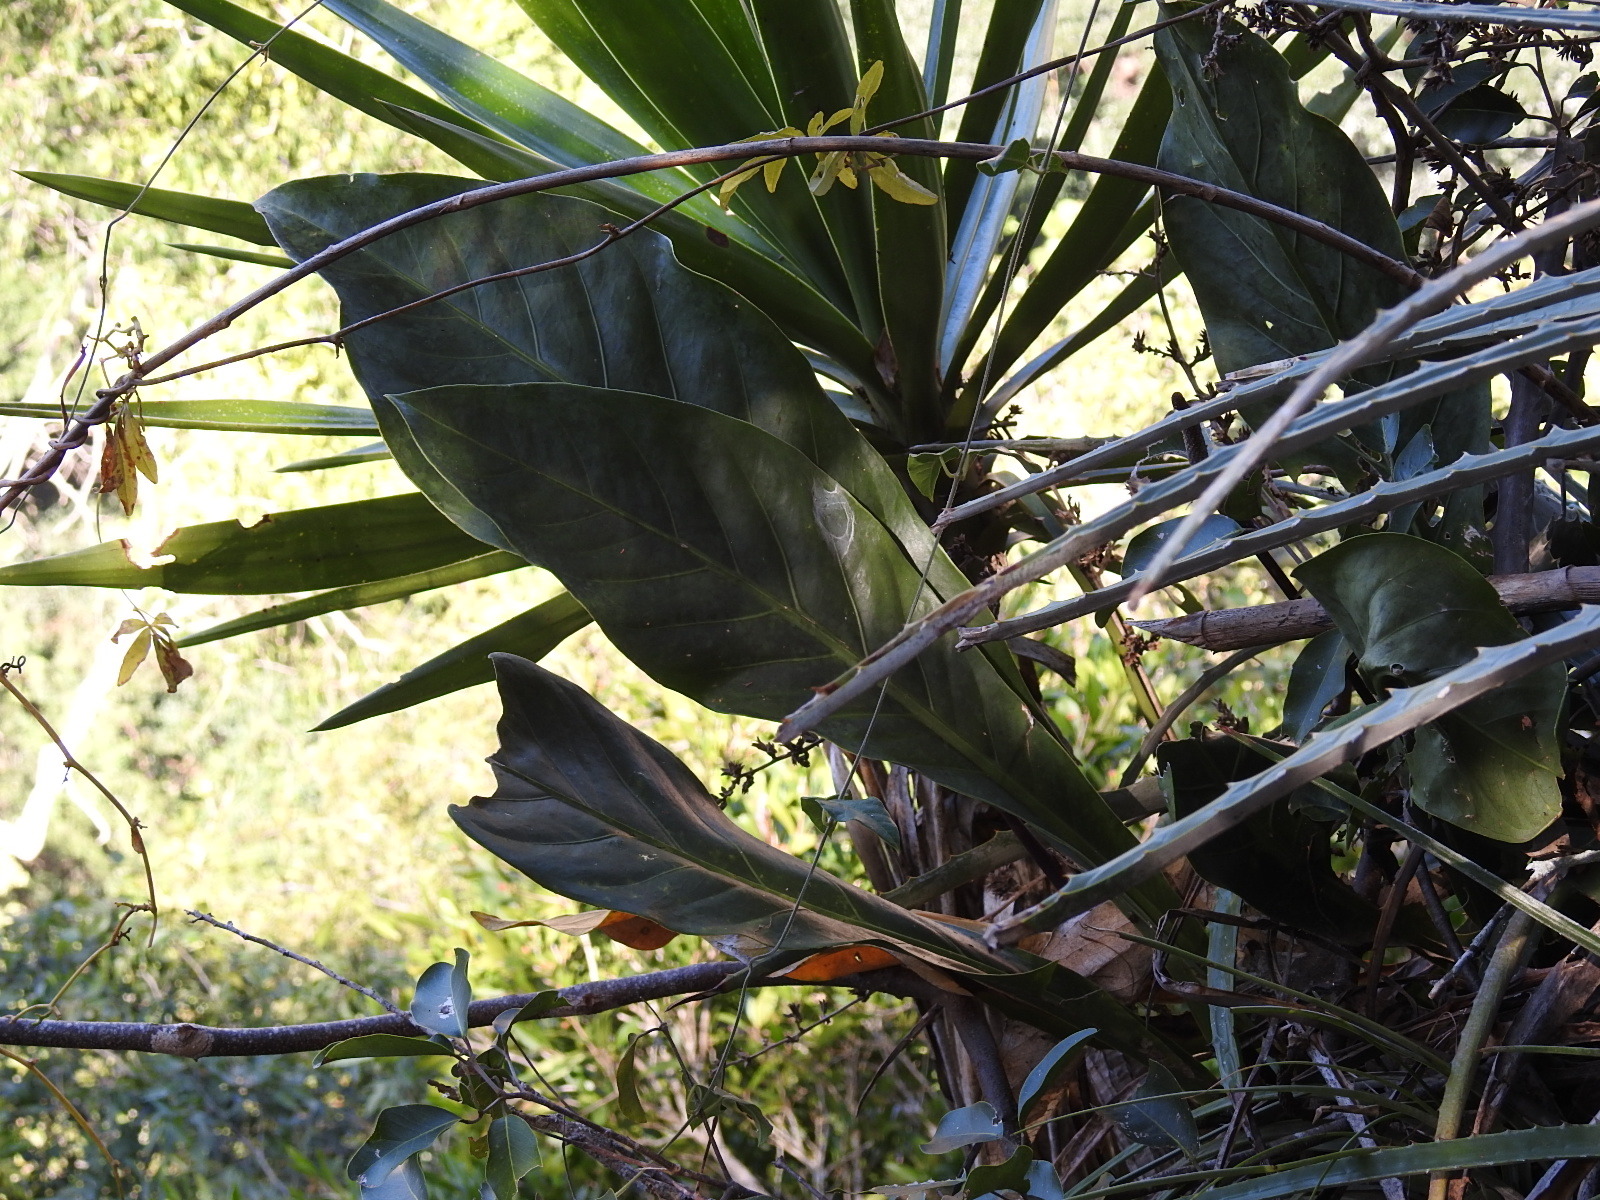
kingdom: Plantae
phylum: Tracheophyta
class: Liliopsida
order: Alismatales
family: Araceae
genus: Anthurium
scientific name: Anthurium schlechtendalii
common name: Laceleaf
